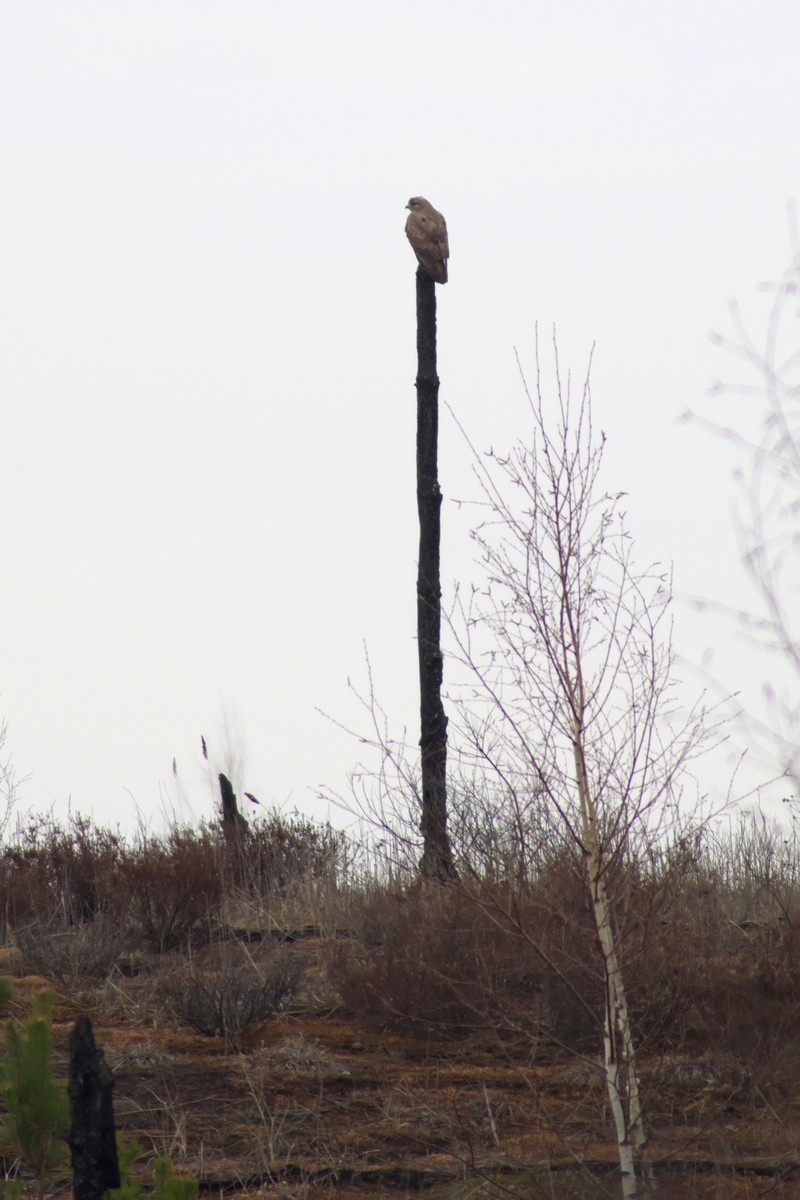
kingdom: Animalia
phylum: Chordata
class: Aves
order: Accipitriformes
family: Accipitridae
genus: Buteo
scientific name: Buteo buteo
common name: Common buzzard
